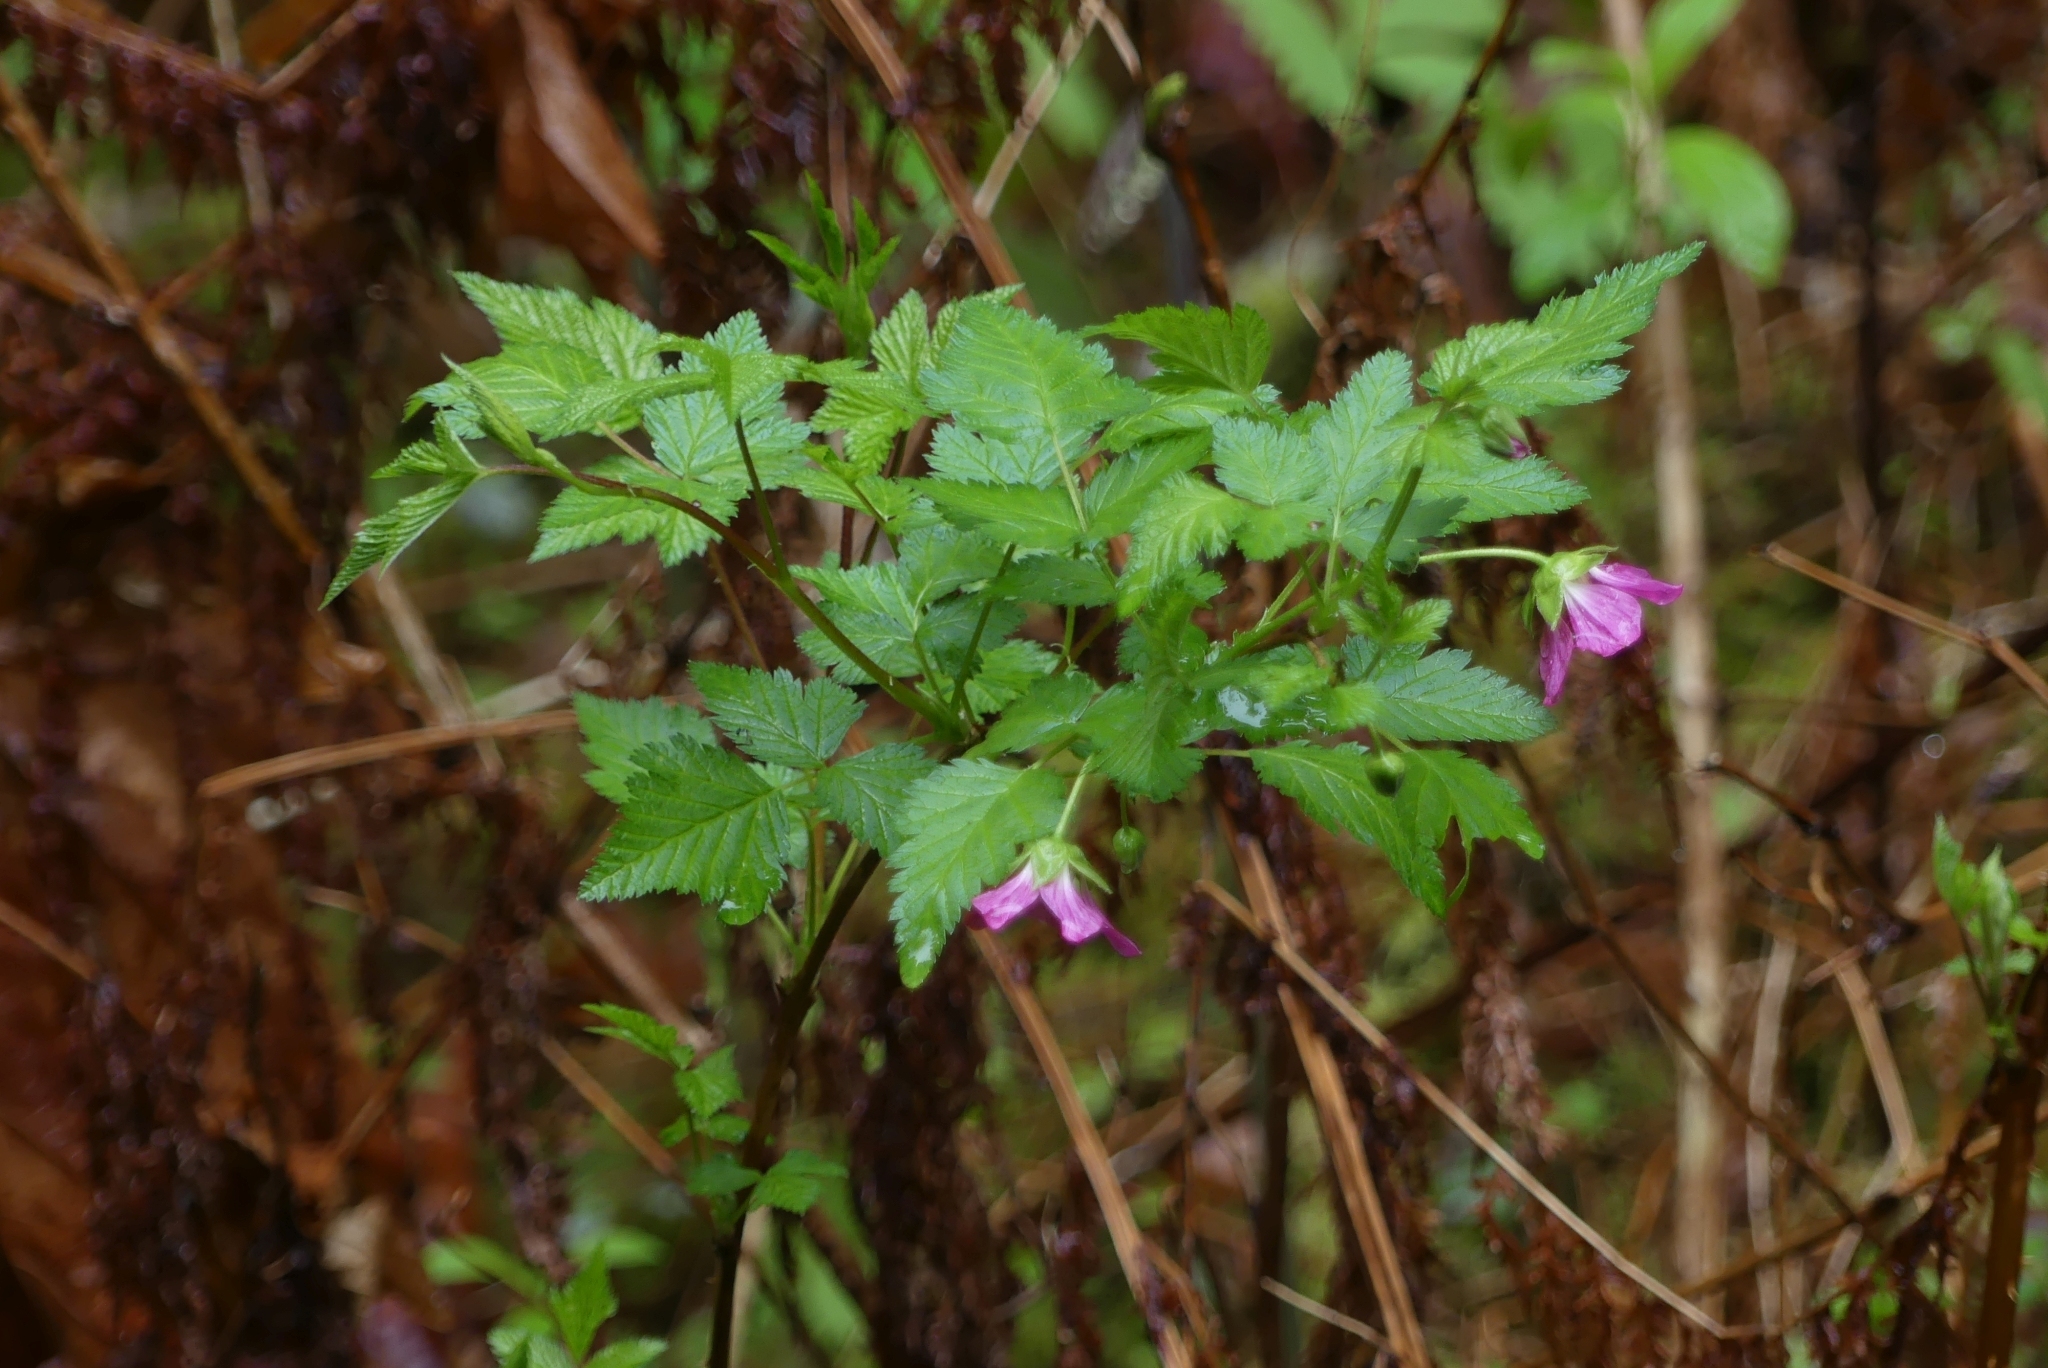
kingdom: Plantae
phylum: Tracheophyta
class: Magnoliopsida
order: Rosales
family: Rosaceae
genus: Rubus
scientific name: Rubus spectabilis
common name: Salmonberry
